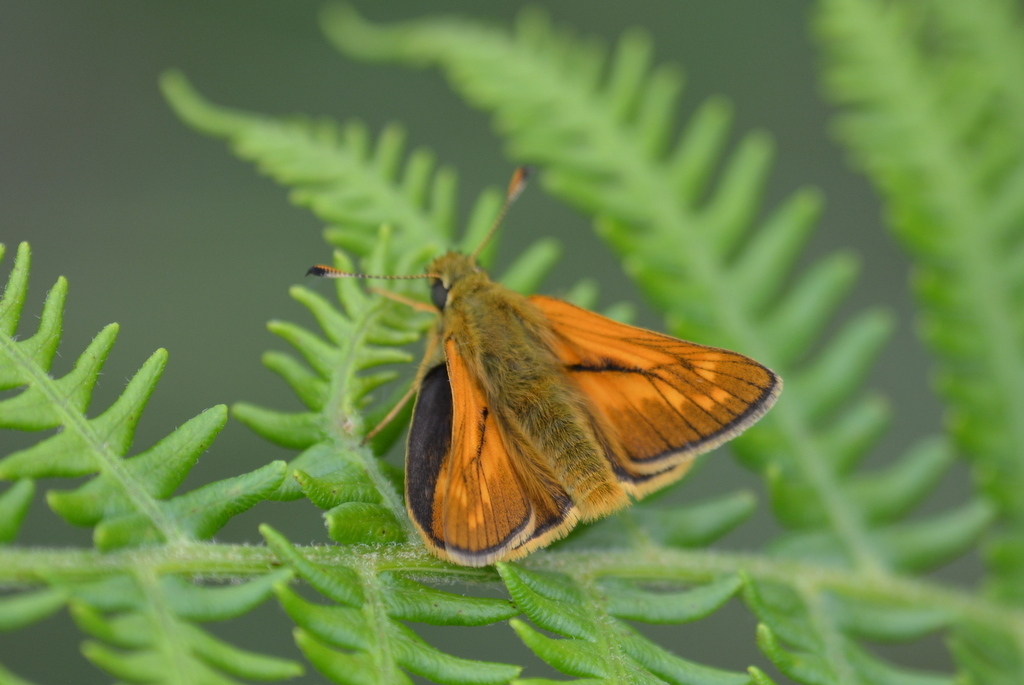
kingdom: Animalia
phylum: Arthropoda
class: Insecta
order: Lepidoptera
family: Hesperiidae
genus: Ochlodes
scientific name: Ochlodes venata
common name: Large skipper
